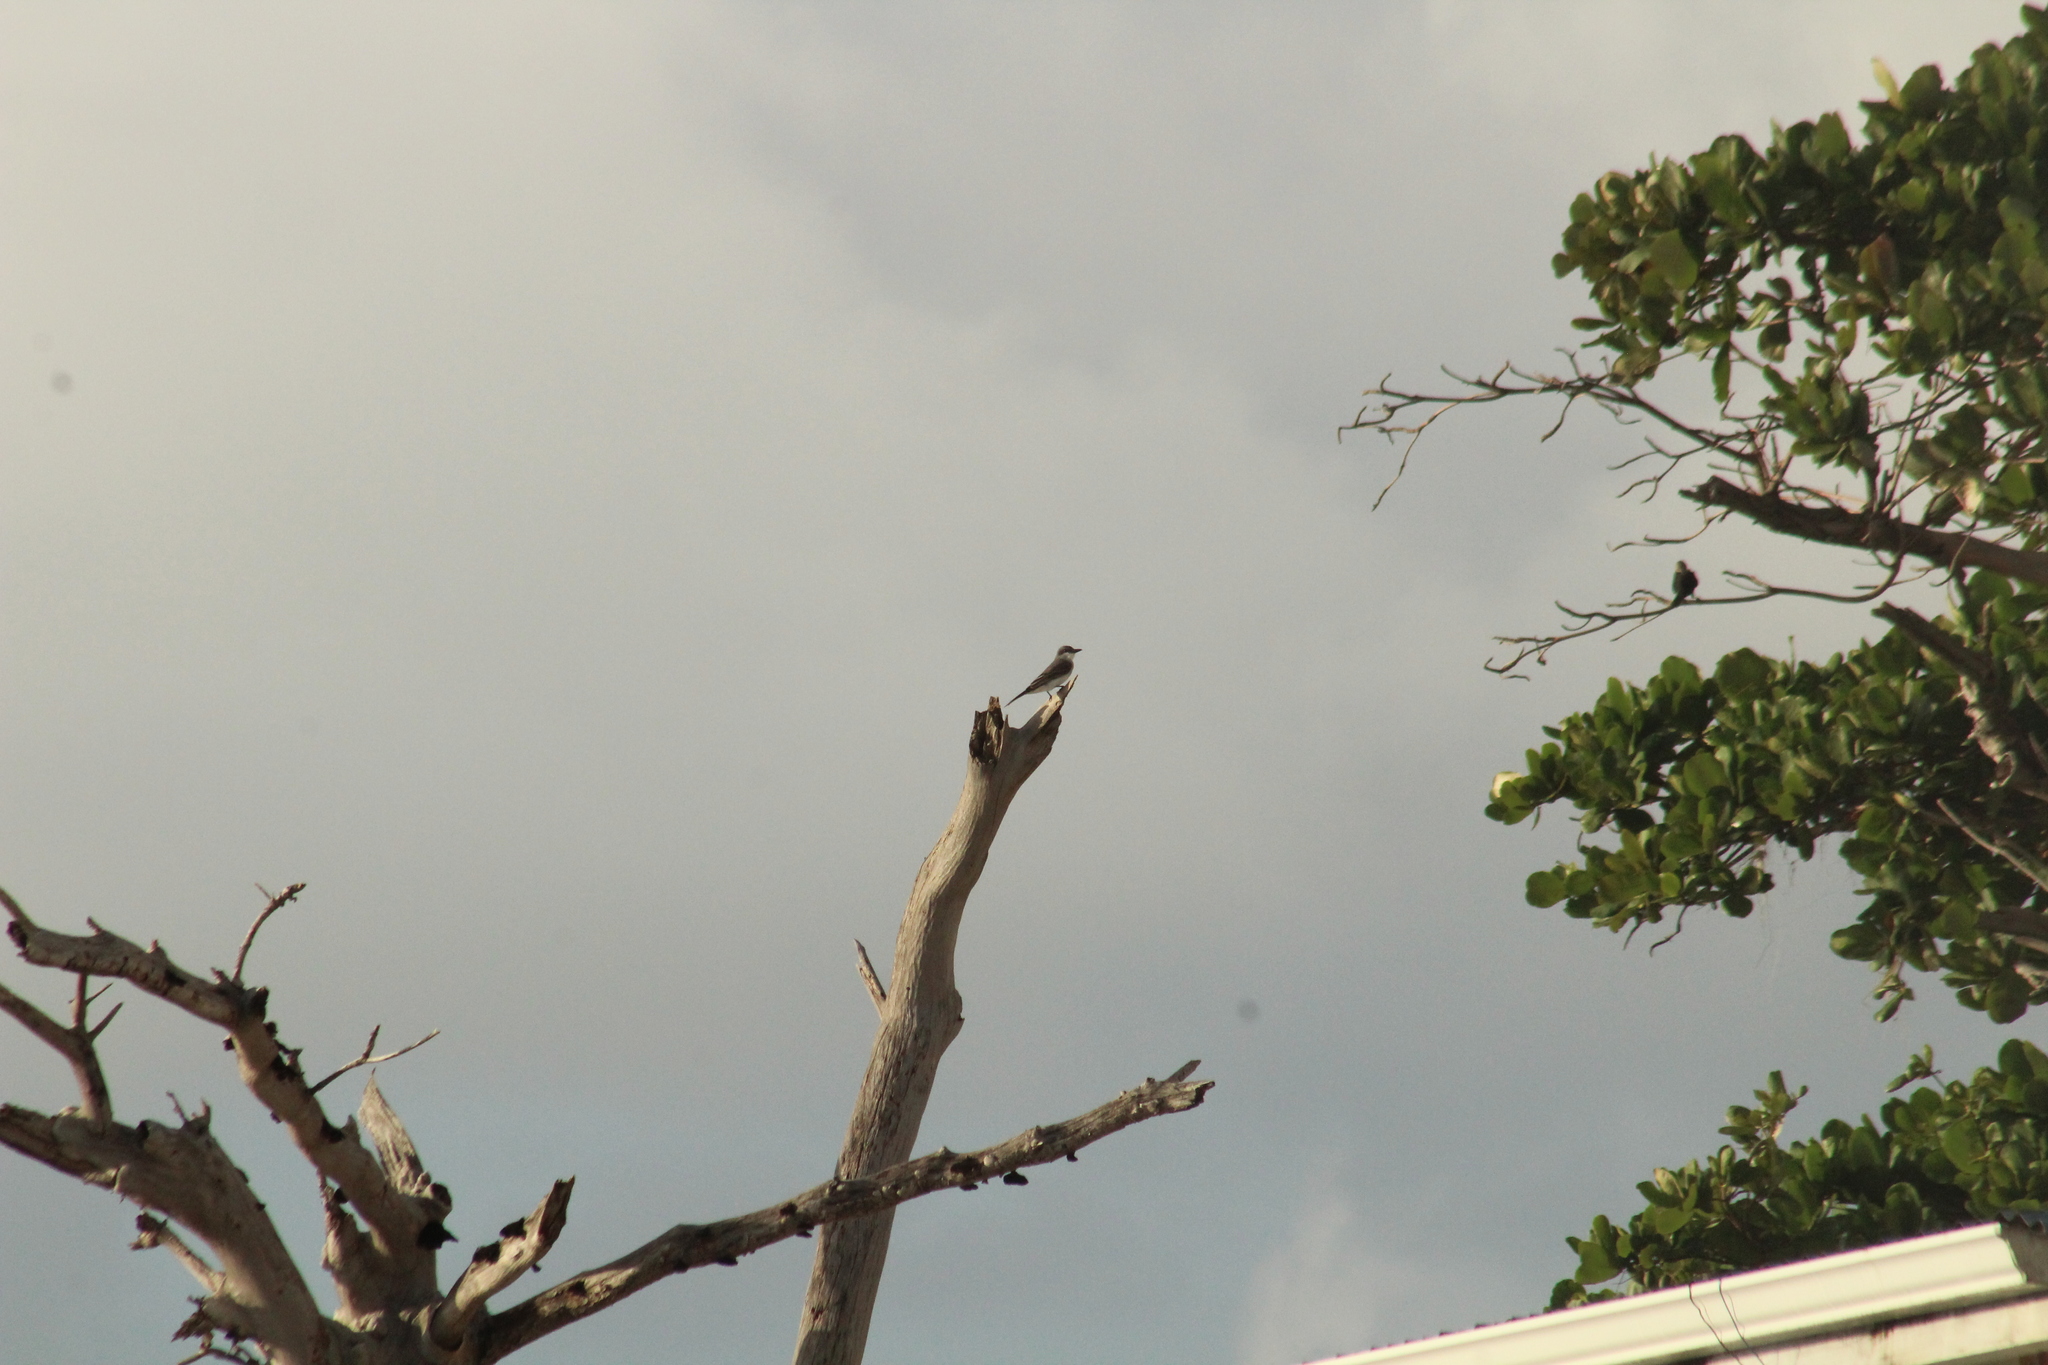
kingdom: Animalia
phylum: Chordata
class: Aves
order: Passeriformes
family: Tyrannidae
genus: Tyrannus
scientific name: Tyrannus dominicensis
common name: Gray kingbird
